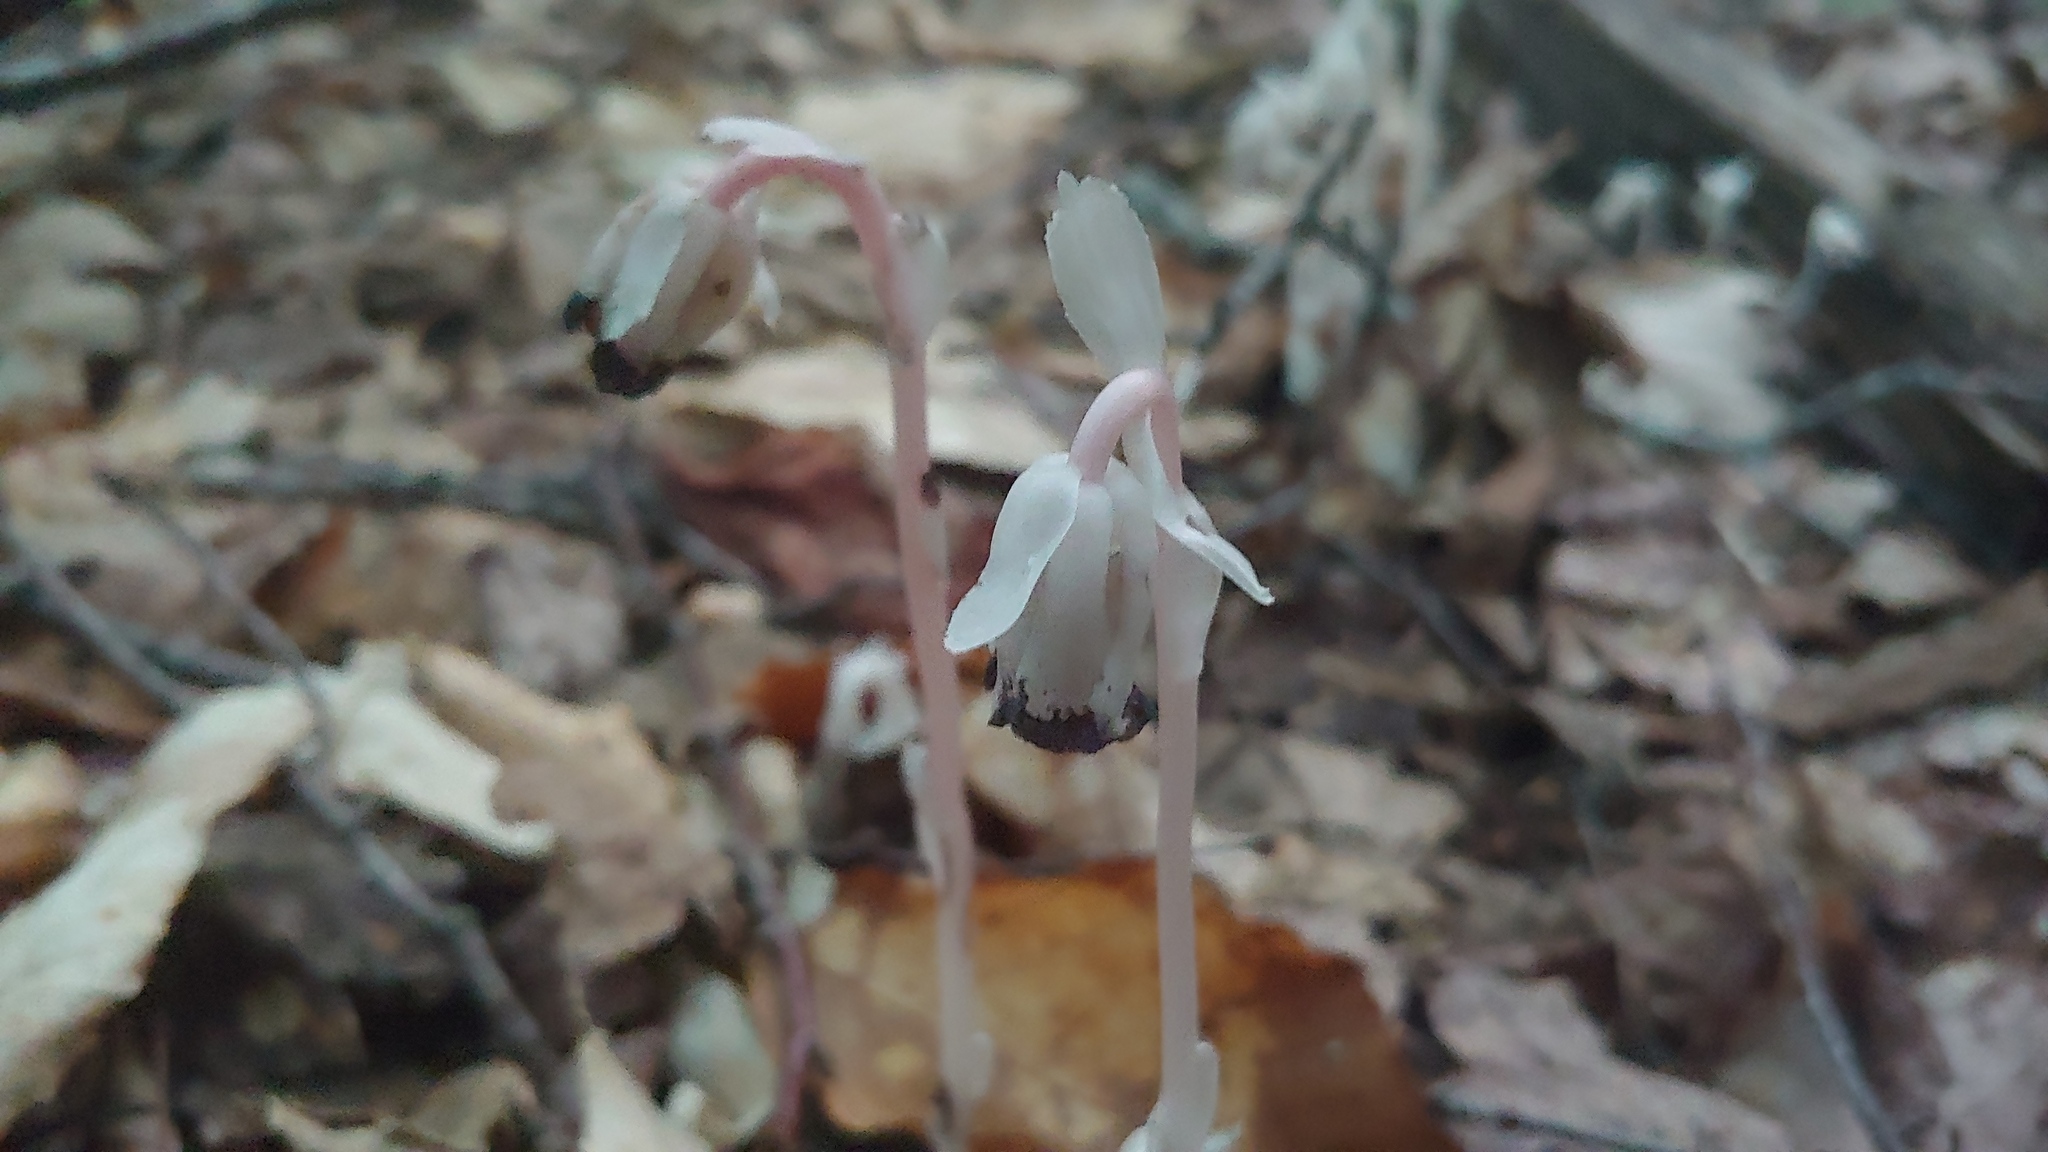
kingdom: Plantae
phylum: Tracheophyta
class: Magnoliopsida
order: Ericales
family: Ericaceae
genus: Monotropa
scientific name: Monotropa uniflora
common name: Convulsion root
